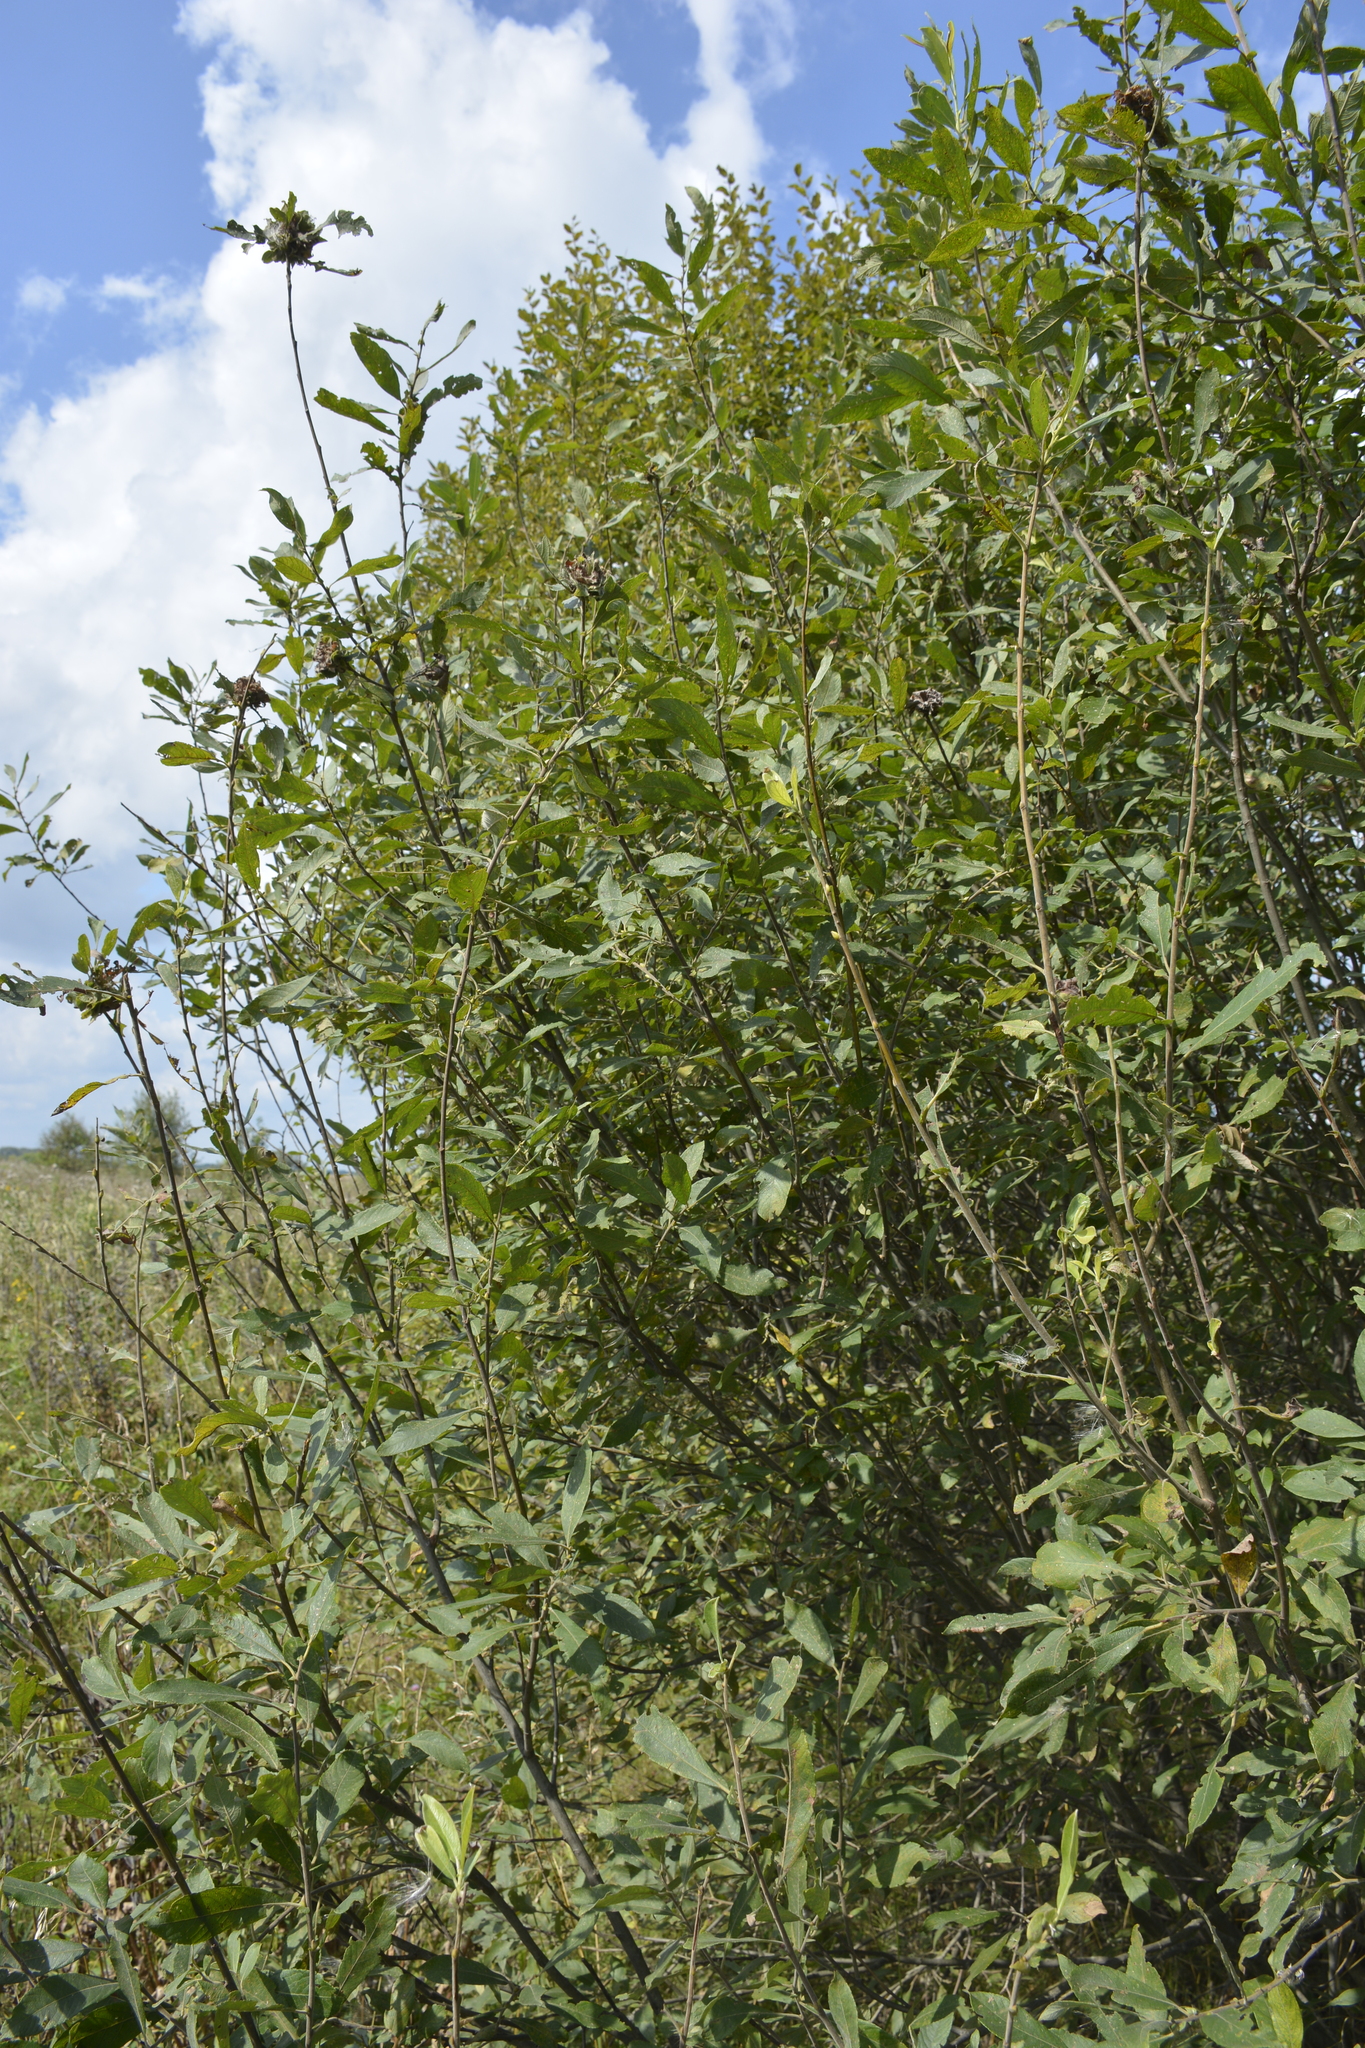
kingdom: Plantae
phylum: Tracheophyta
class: Magnoliopsida
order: Malpighiales
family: Salicaceae
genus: Salix
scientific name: Salix cinerea
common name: Common sallow
